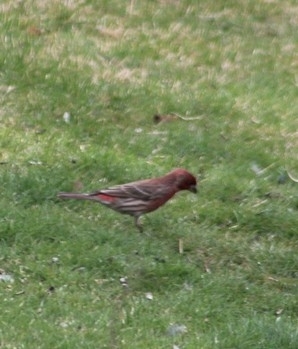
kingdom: Animalia
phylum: Chordata
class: Aves
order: Passeriformes
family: Fringillidae
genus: Haemorhous
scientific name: Haemorhous mexicanus
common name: House finch
